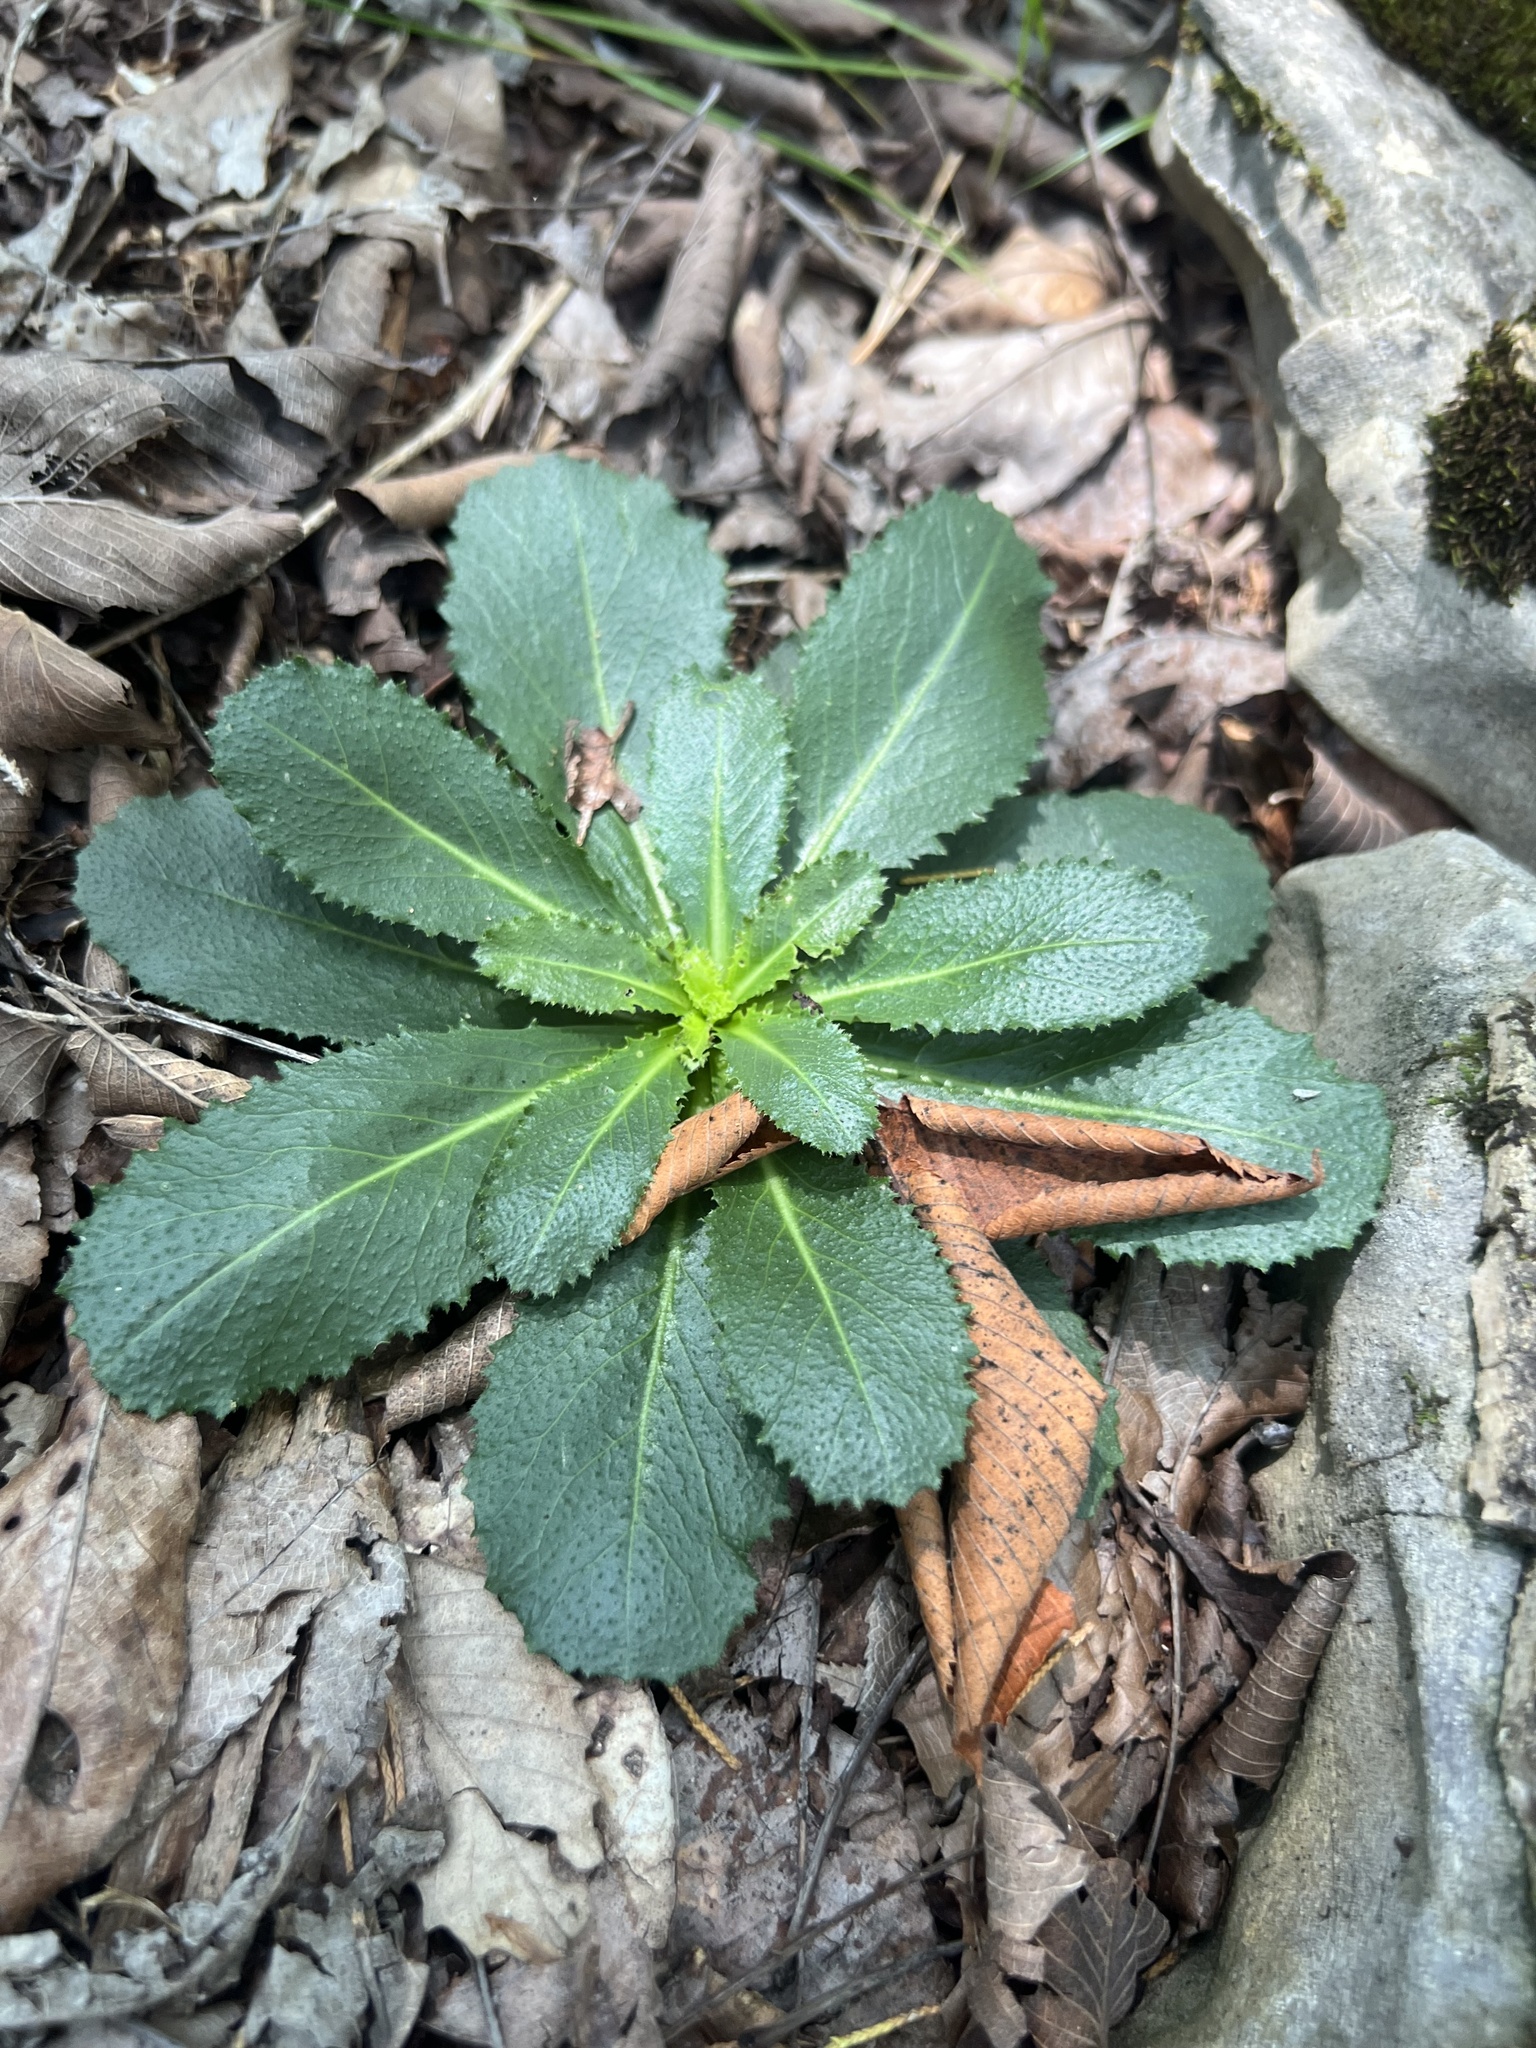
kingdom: Plantae
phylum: Tracheophyta
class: Magnoliopsida
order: Brassicales
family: Brassicaceae
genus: Borodinia
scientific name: Borodinia laevigata
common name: Smooth rockcress
